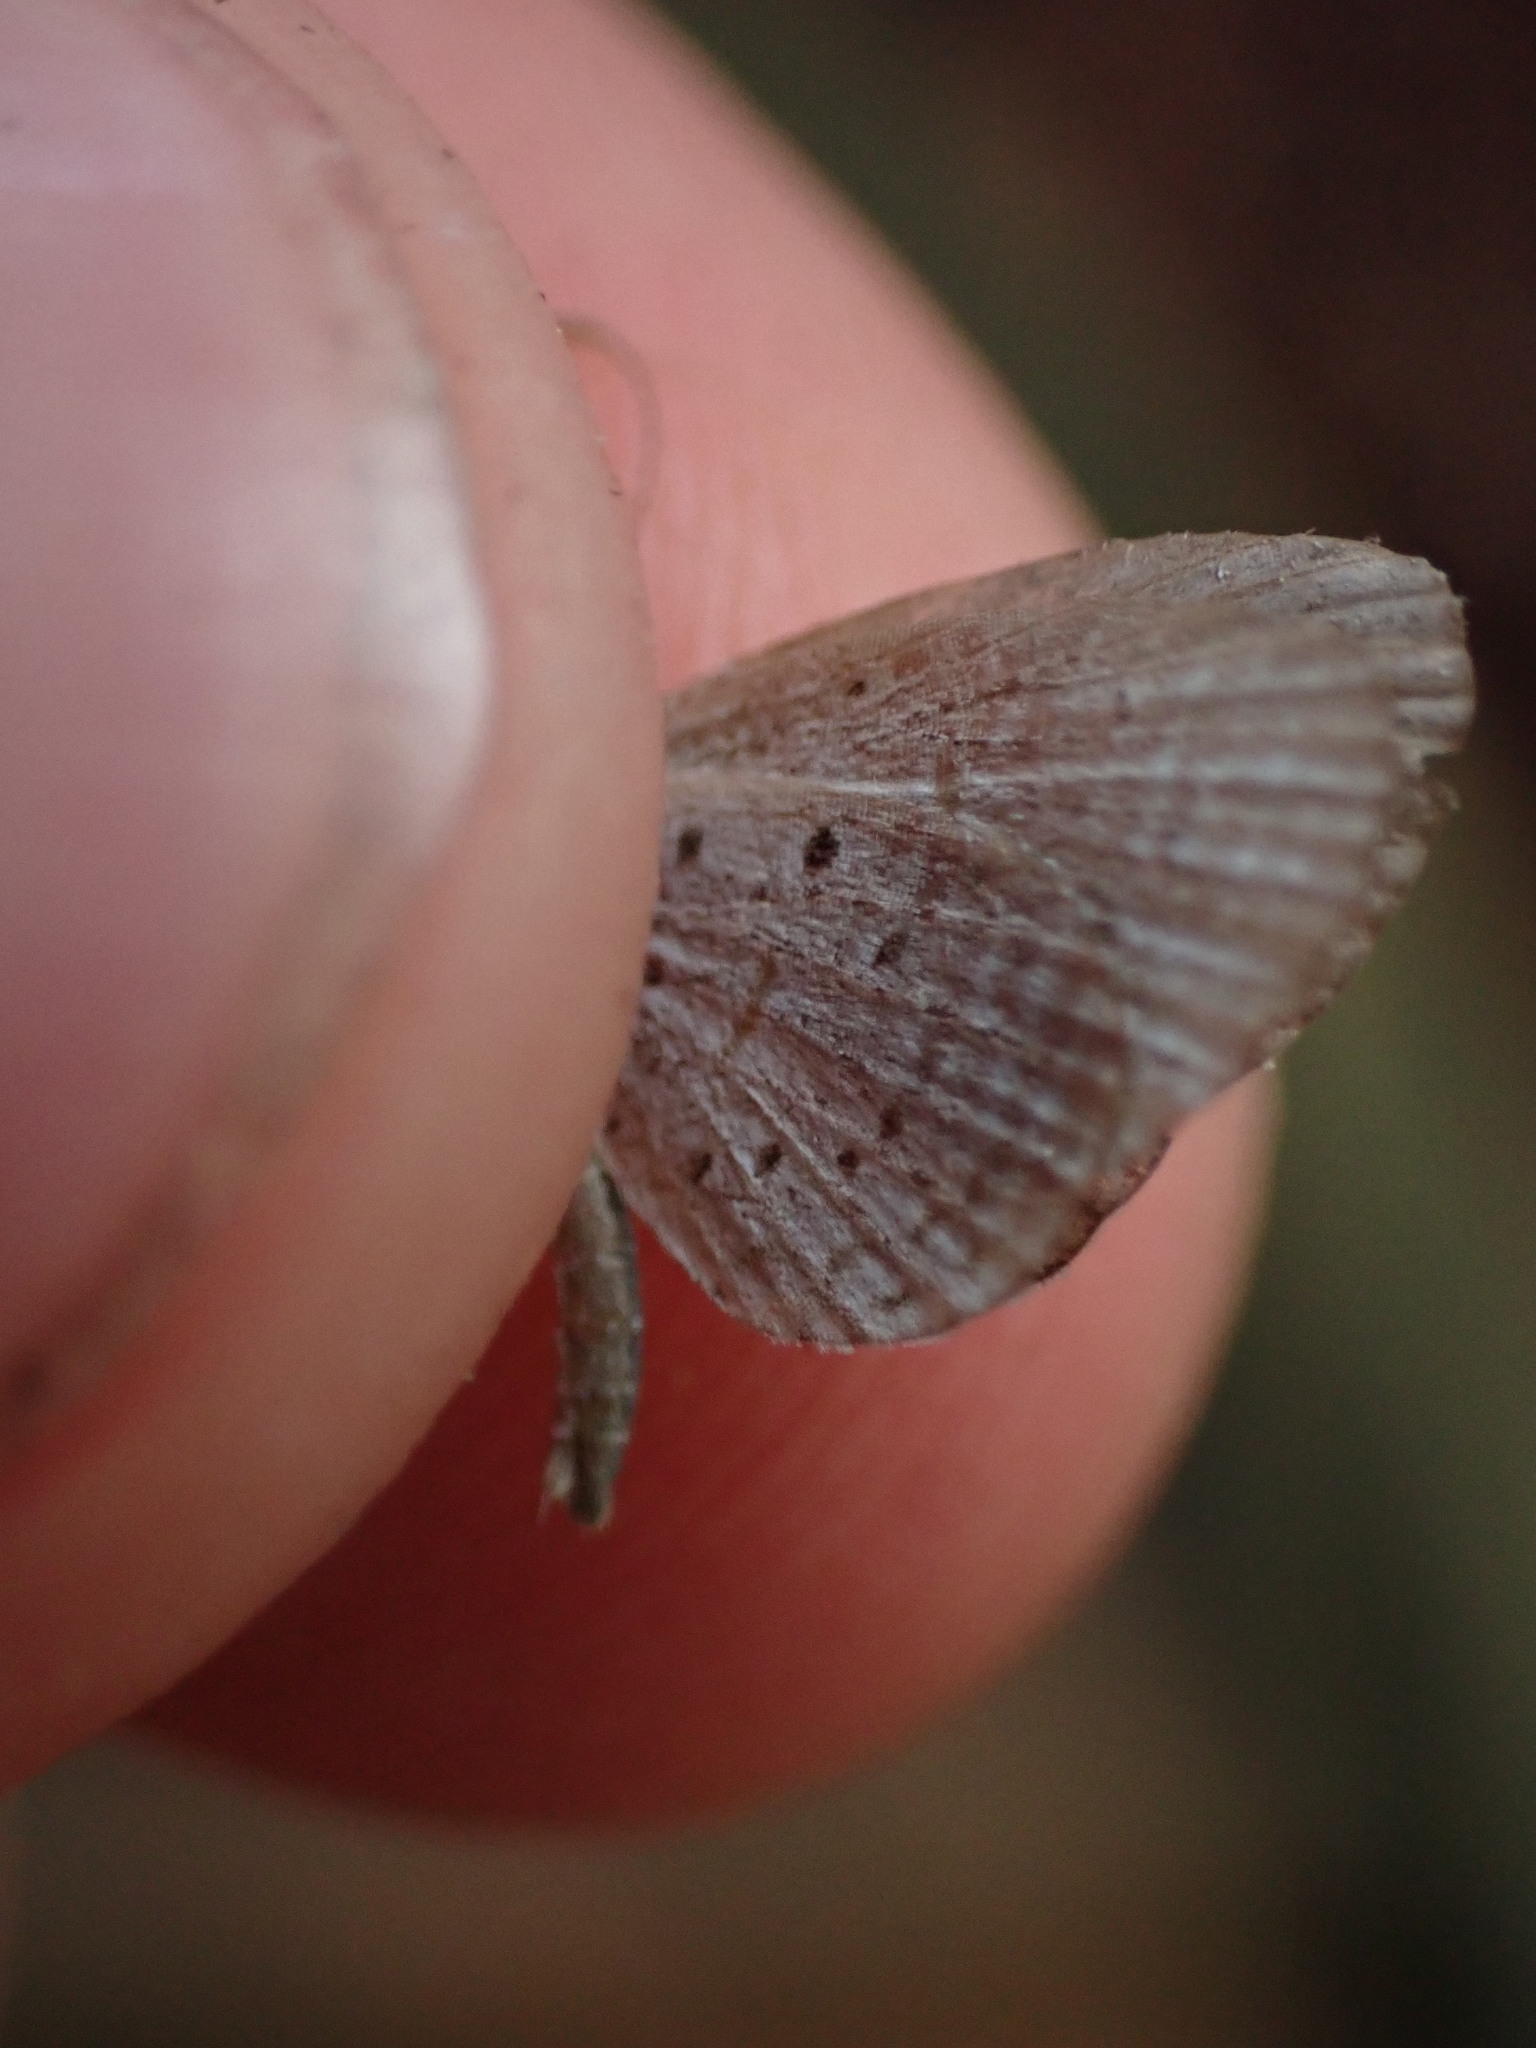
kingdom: Animalia
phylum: Arthropoda
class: Insecta
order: Lepidoptera
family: Lycaenidae
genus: Zizula
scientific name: Zizula hylax
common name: Gaika blue
